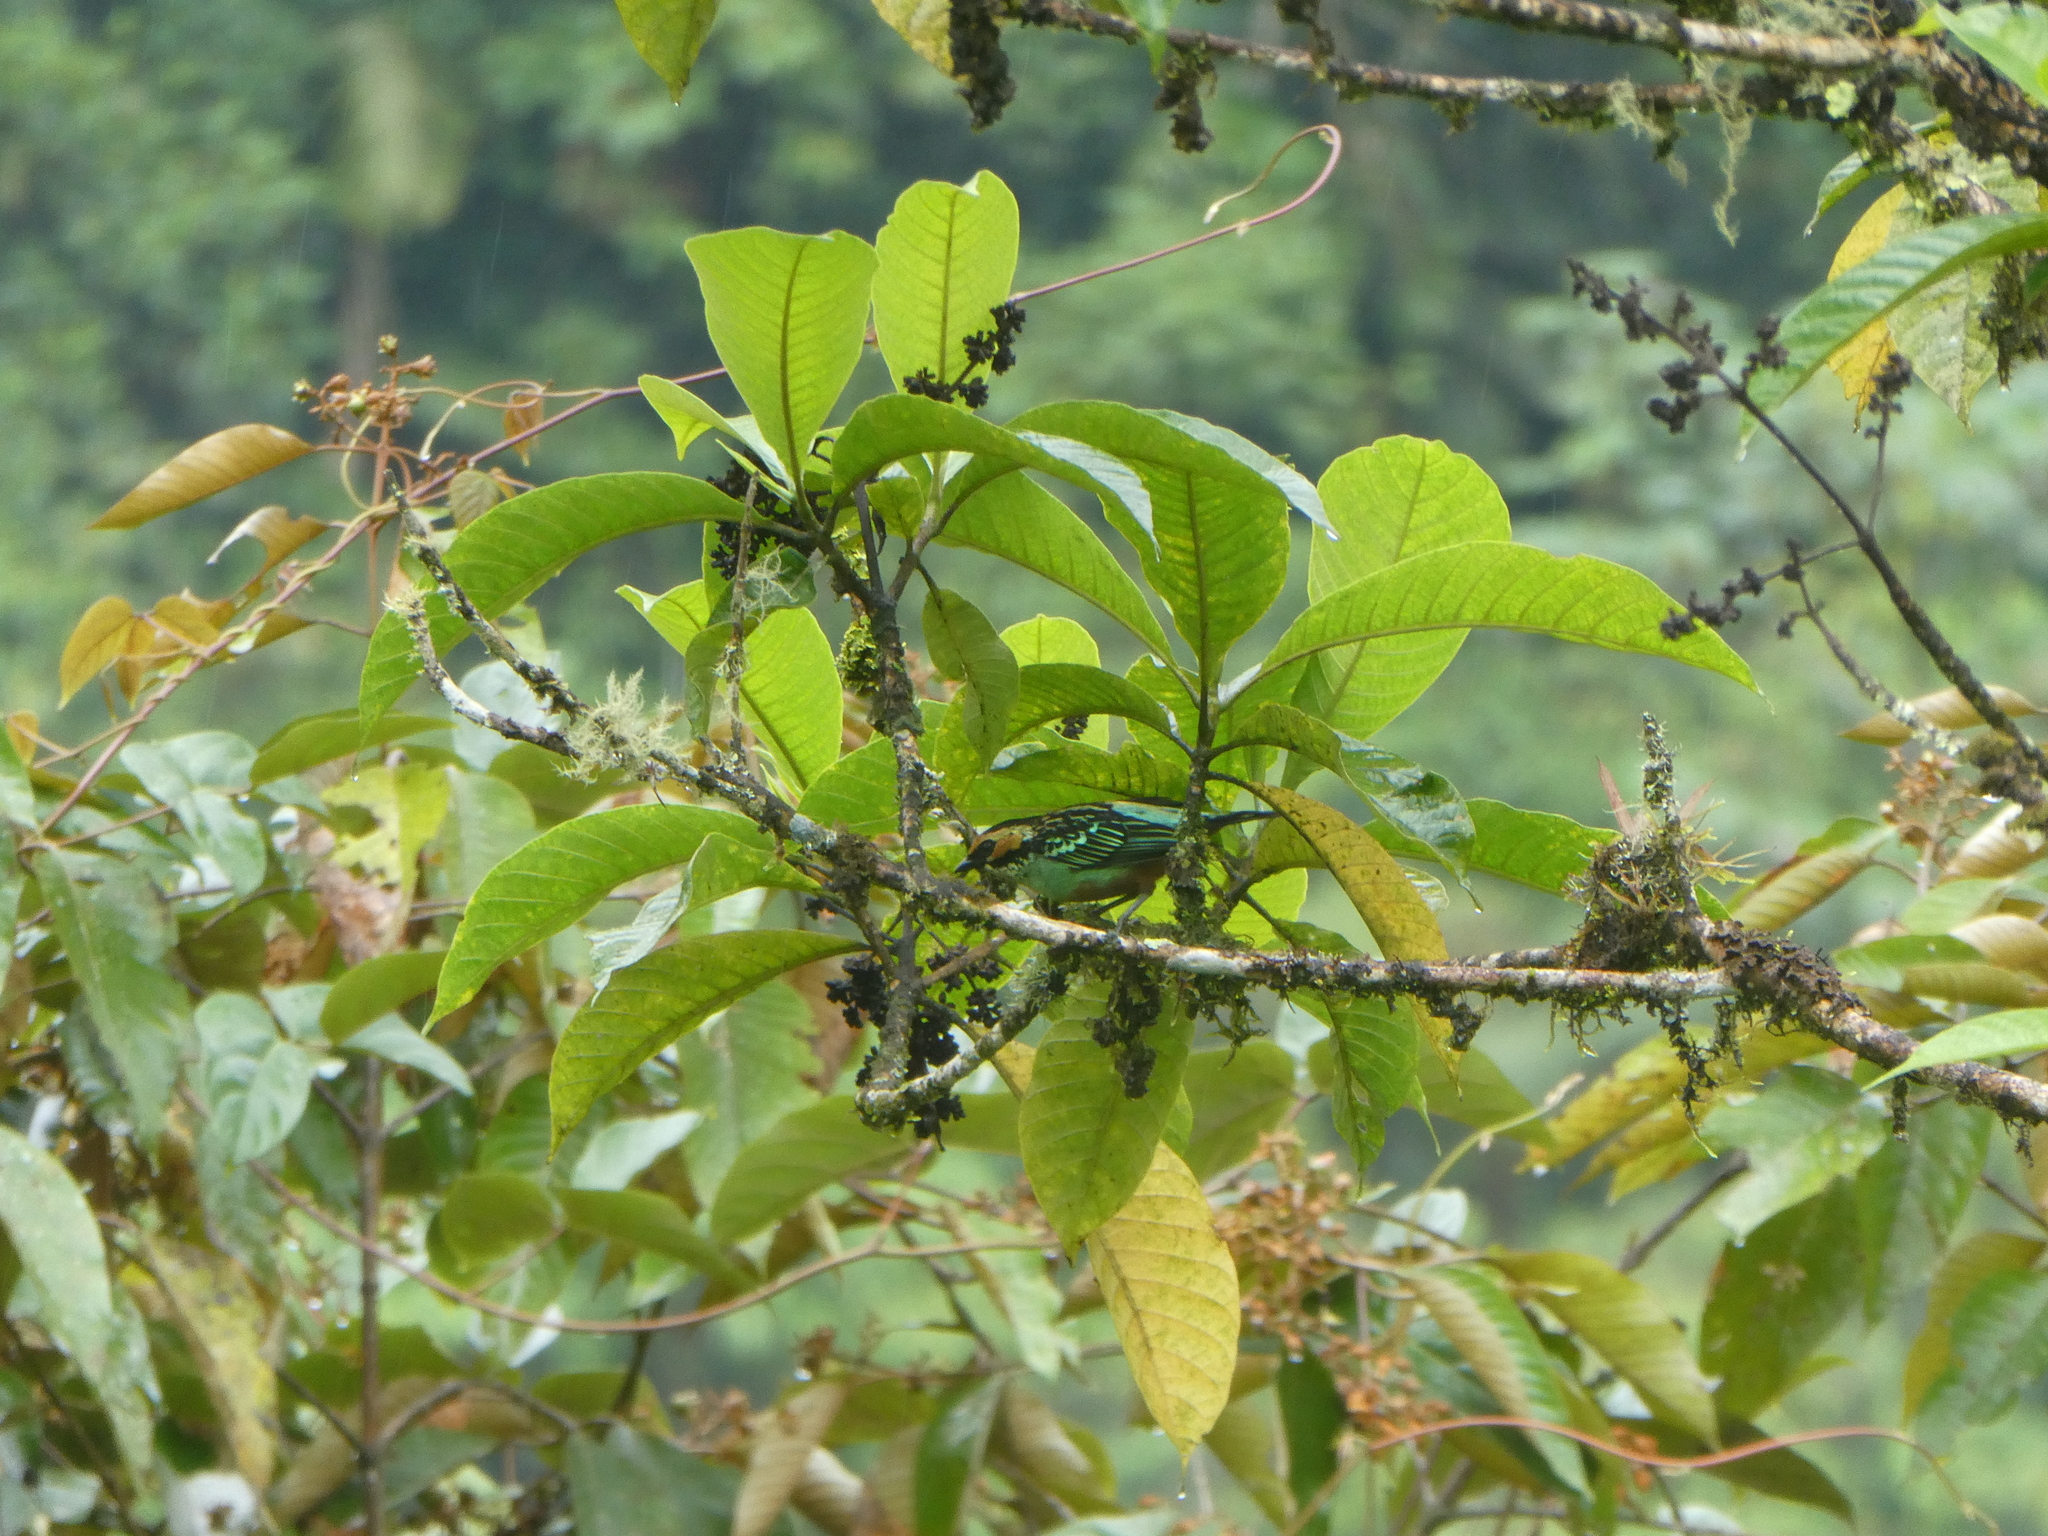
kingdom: Animalia
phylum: Chordata
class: Aves
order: Passeriformes
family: Thraupidae
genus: Tangara
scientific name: Tangara chrysotis
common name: Golden-eared tanager
